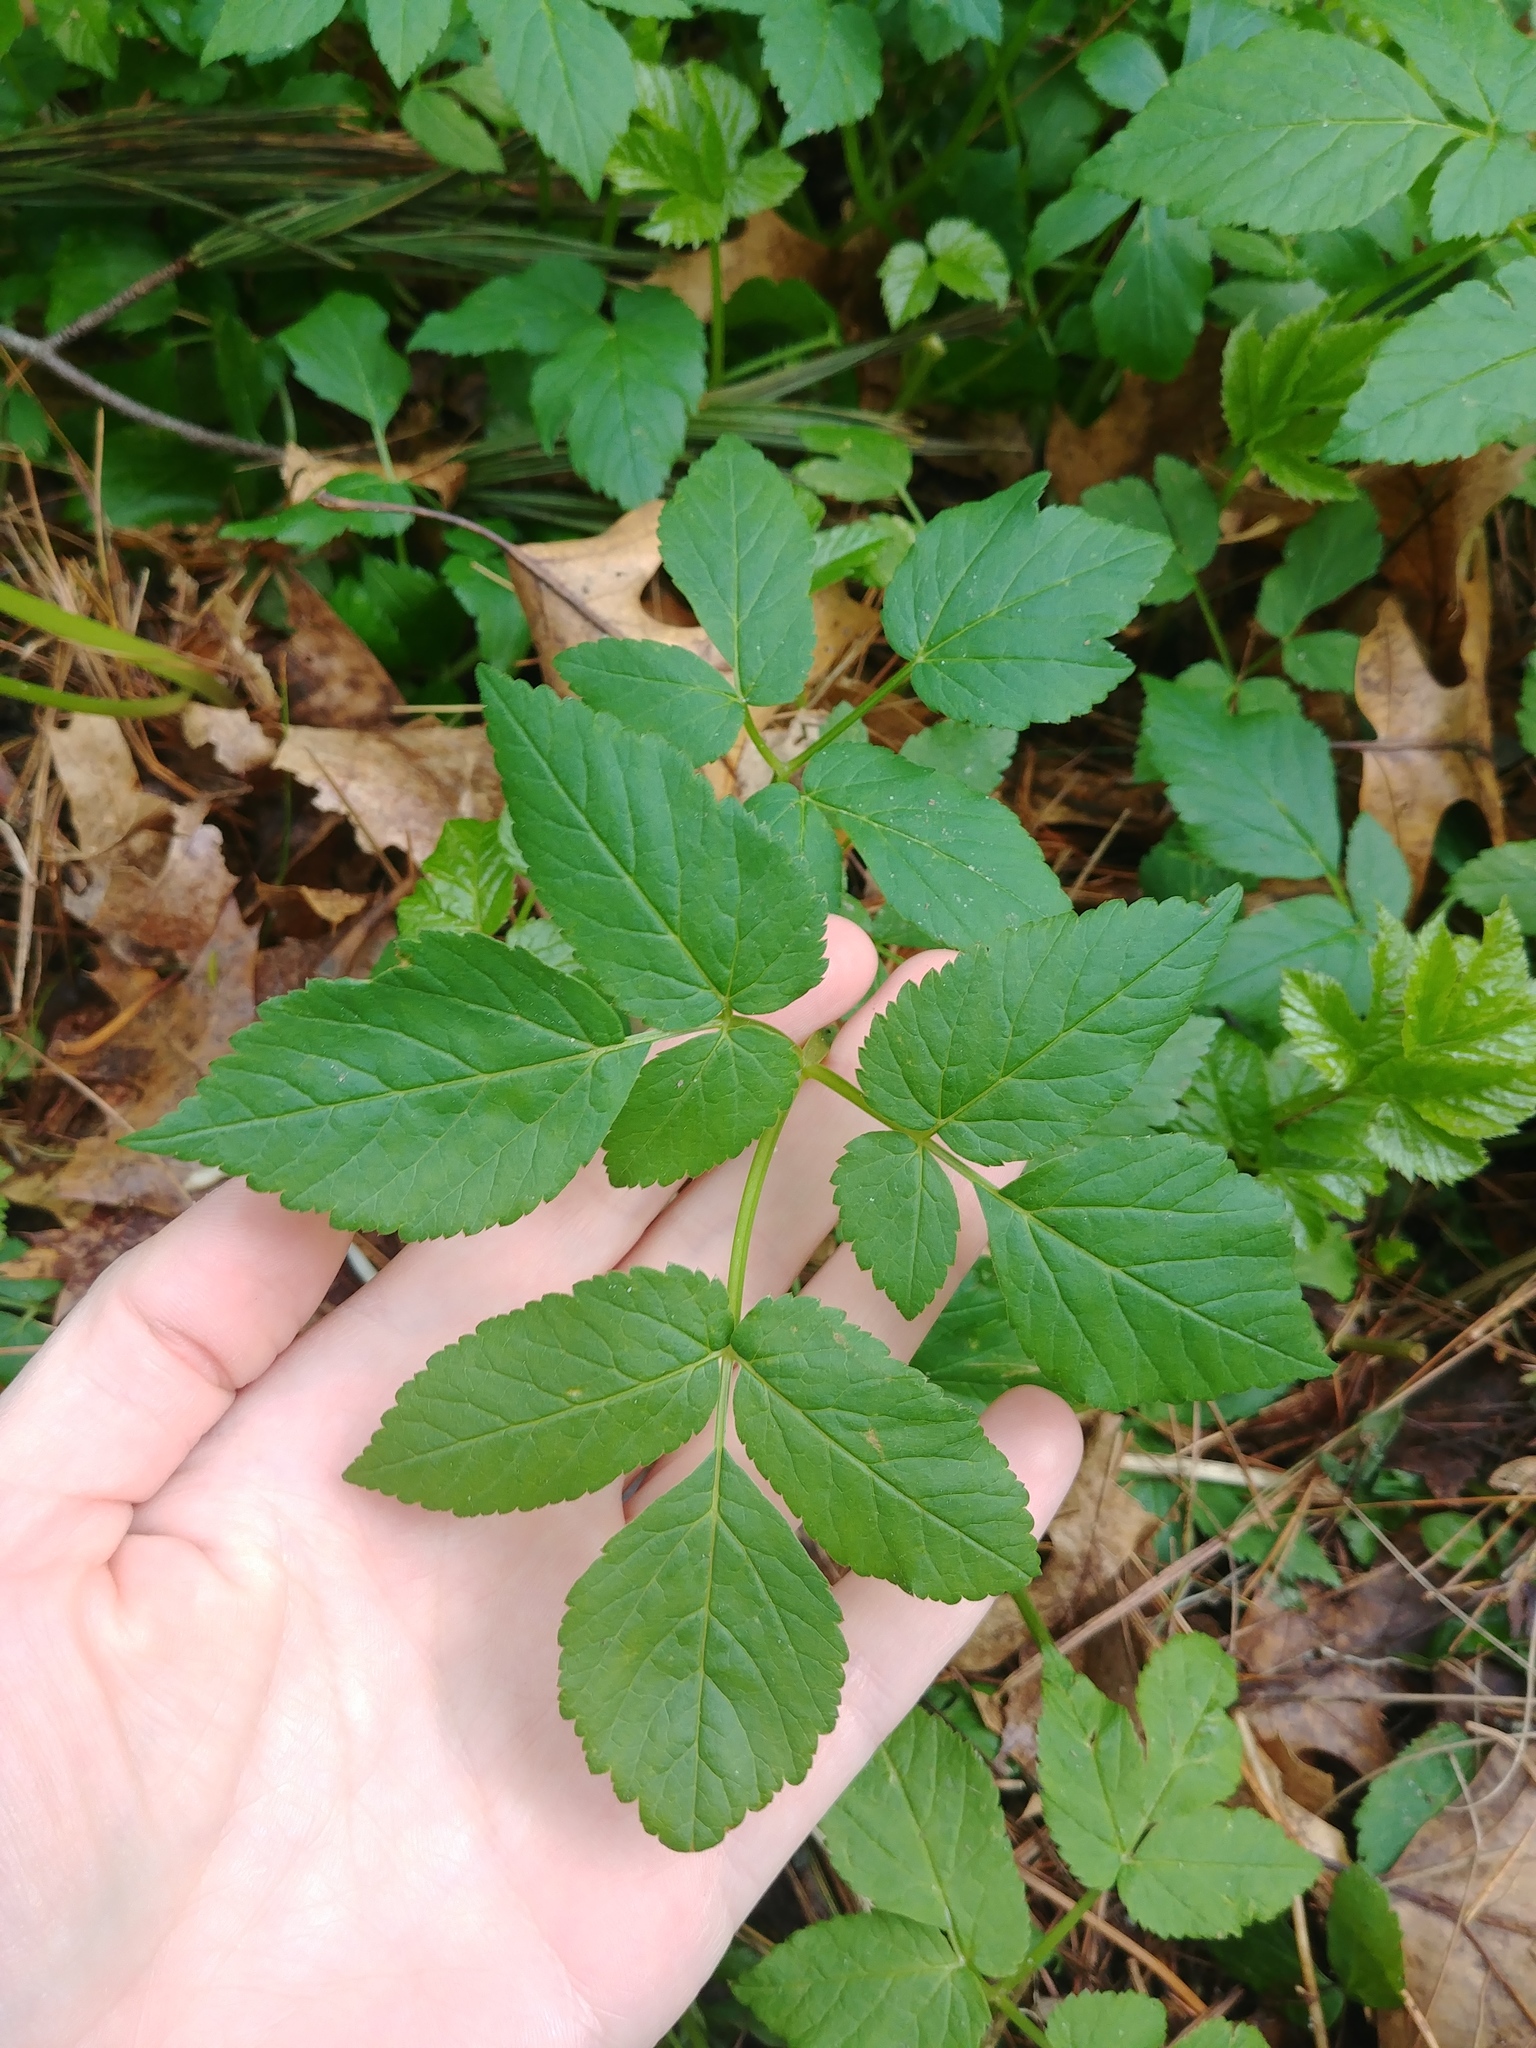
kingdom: Plantae
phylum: Tracheophyta
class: Magnoliopsida
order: Apiales
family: Apiaceae
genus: Aegopodium
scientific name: Aegopodium podagraria
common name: Ground-elder
